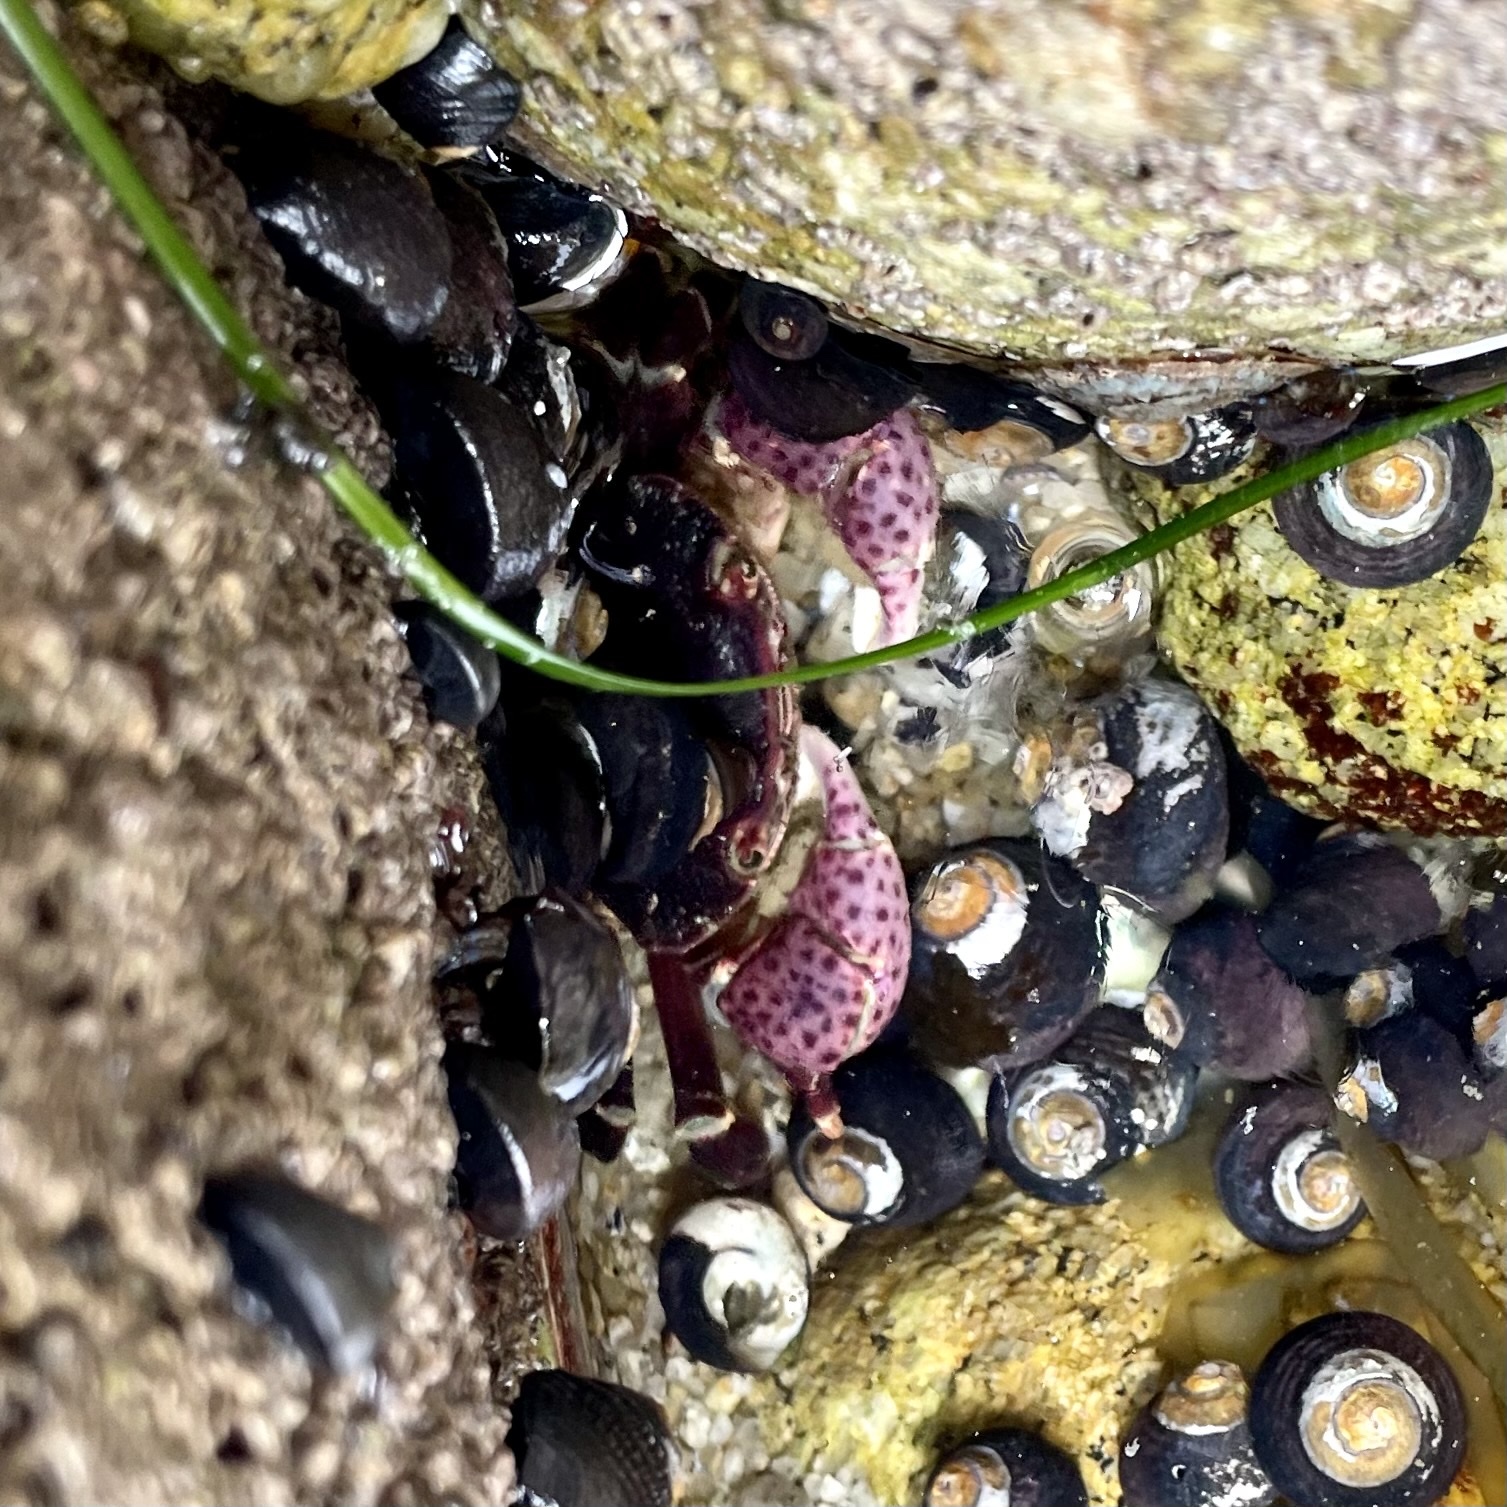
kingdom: Animalia
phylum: Arthropoda
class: Malacostraca
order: Decapoda
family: Varunidae
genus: Hemigrapsus
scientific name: Hemigrapsus nudus
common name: Purple shore crab
